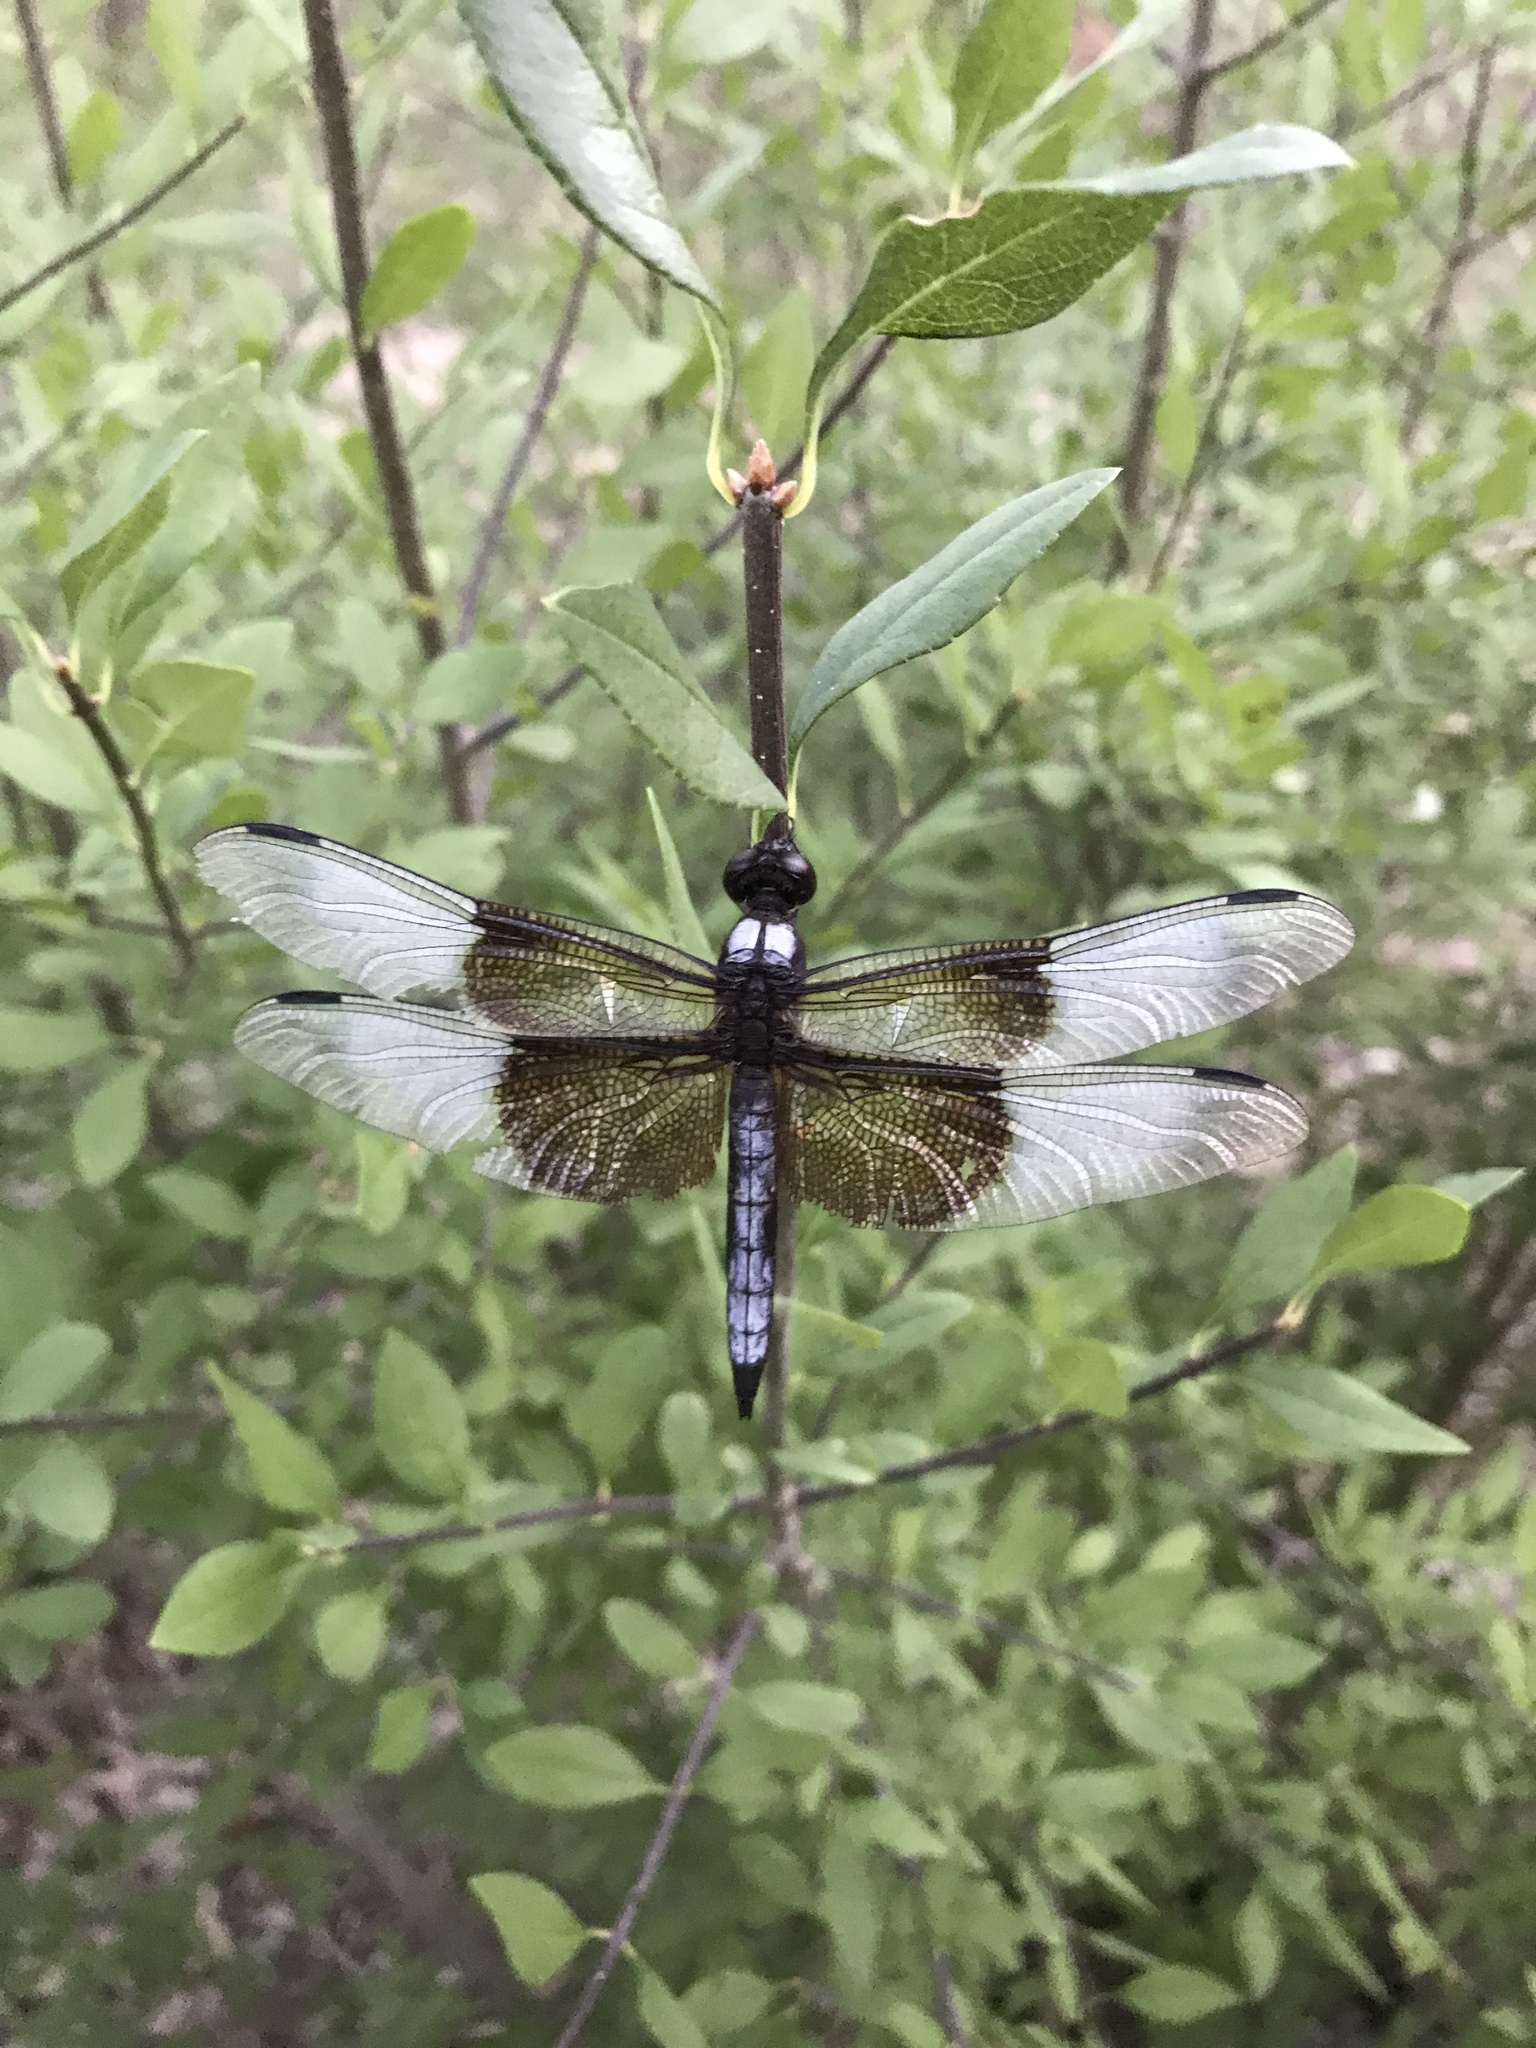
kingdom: Animalia
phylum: Arthropoda
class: Insecta
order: Odonata
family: Libellulidae
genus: Libellula
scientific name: Libellula luctuosa
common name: Widow skimmer
